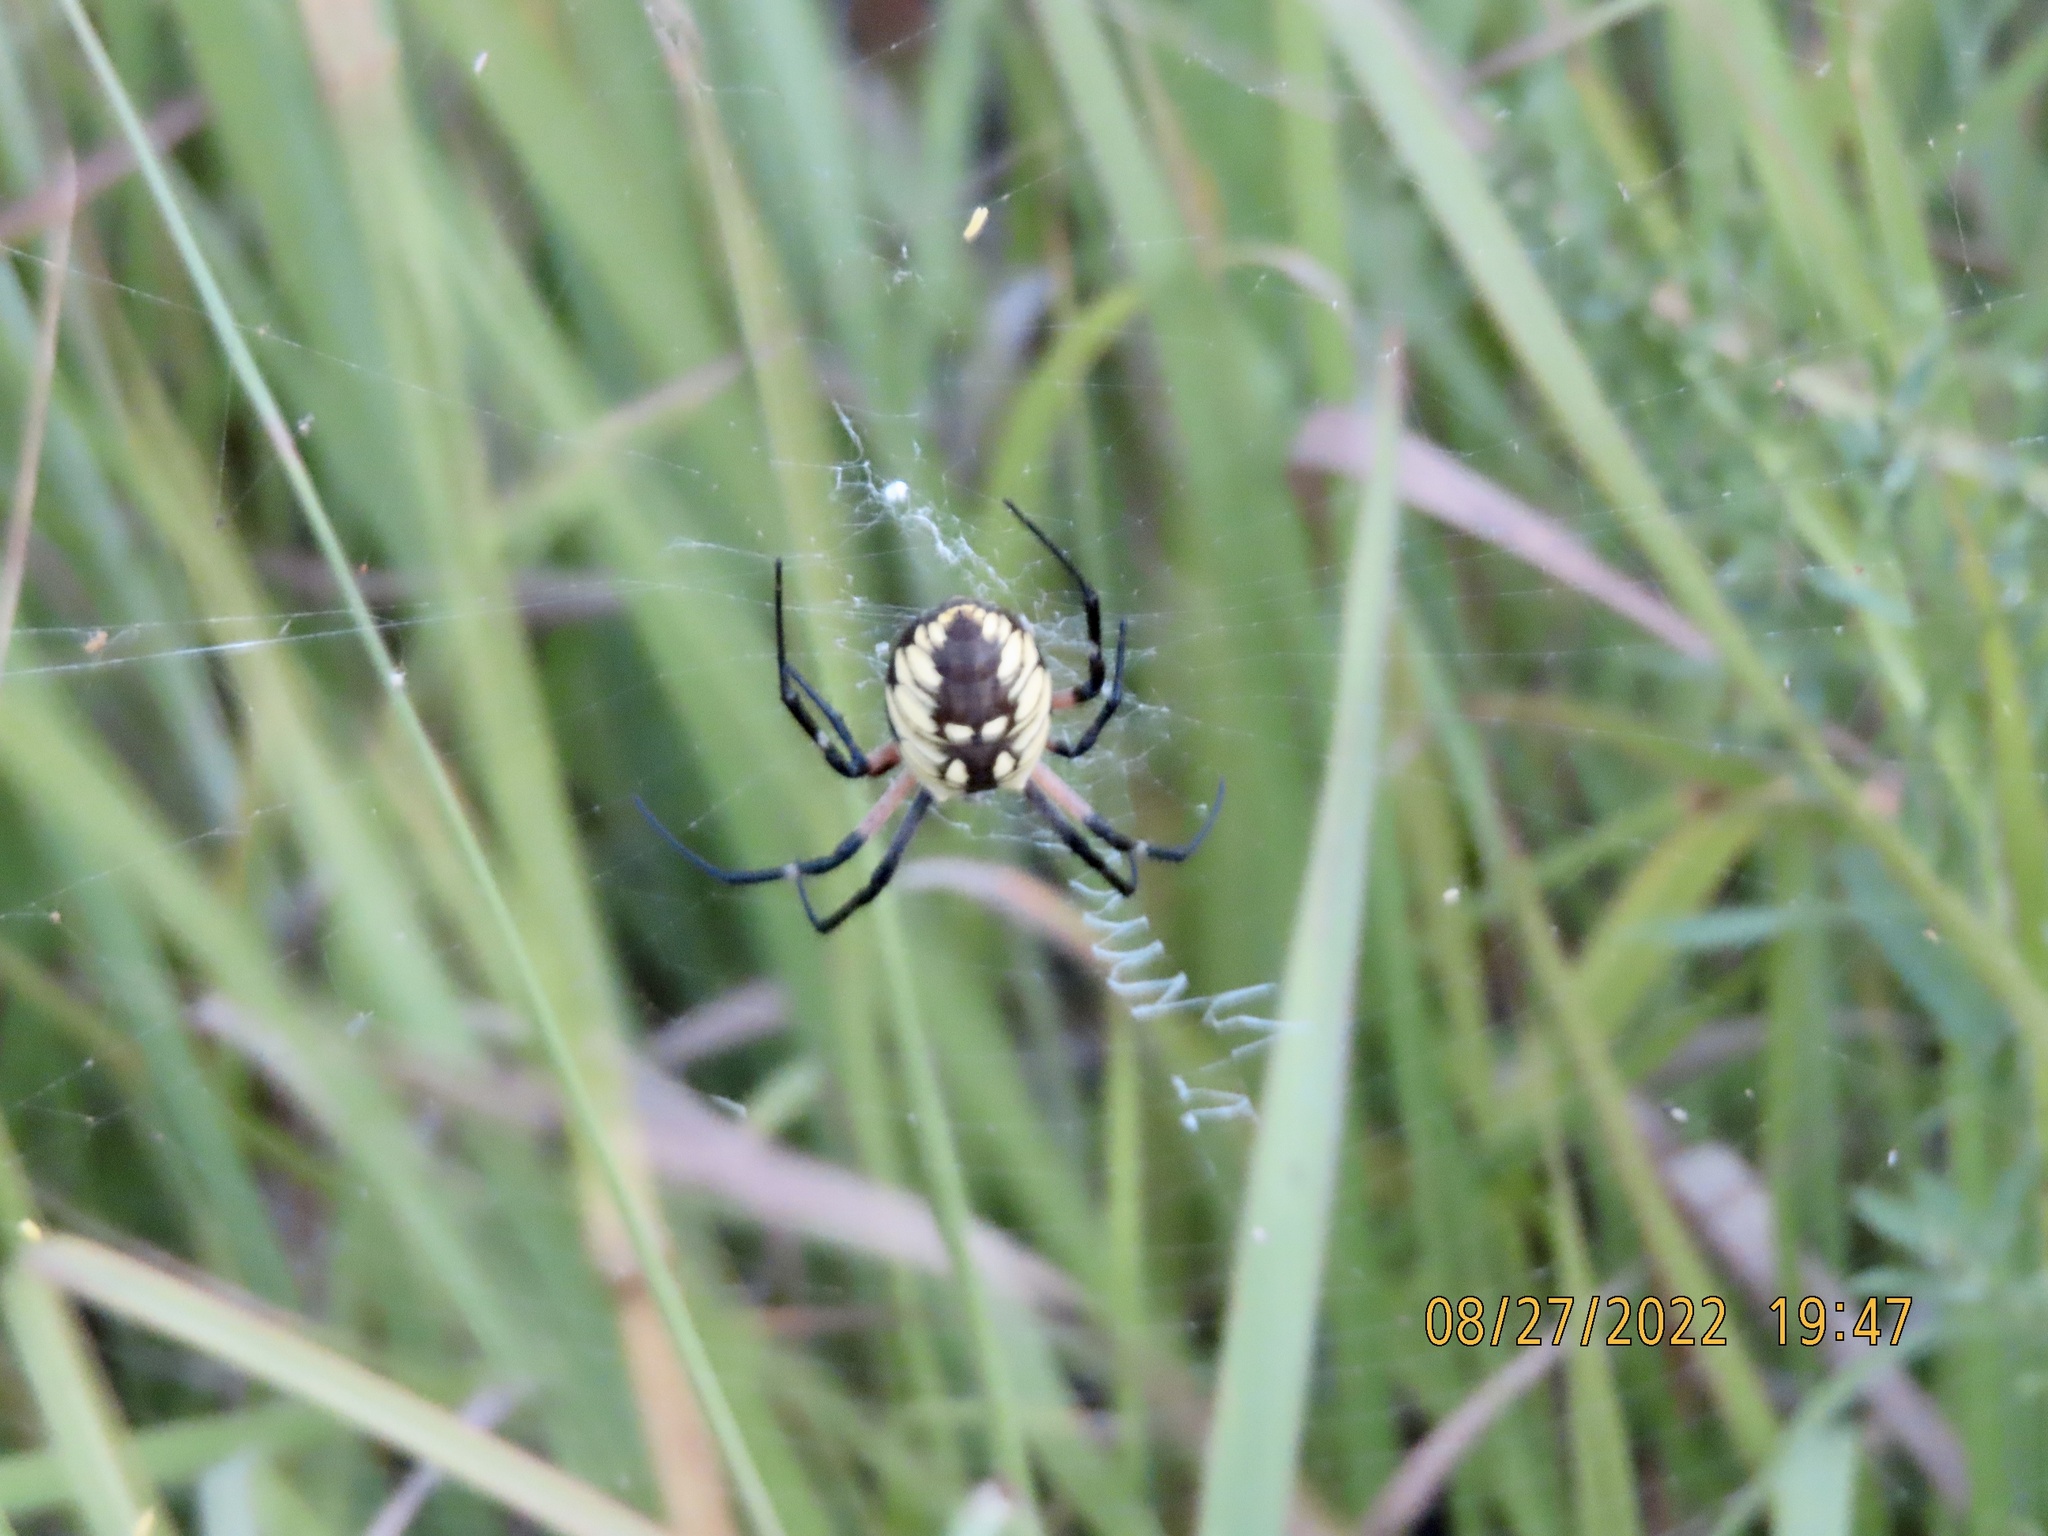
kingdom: Animalia
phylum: Arthropoda
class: Arachnida
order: Araneae
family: Araneidae
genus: Argiope
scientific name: Argiope aurantia
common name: Orb weavers
